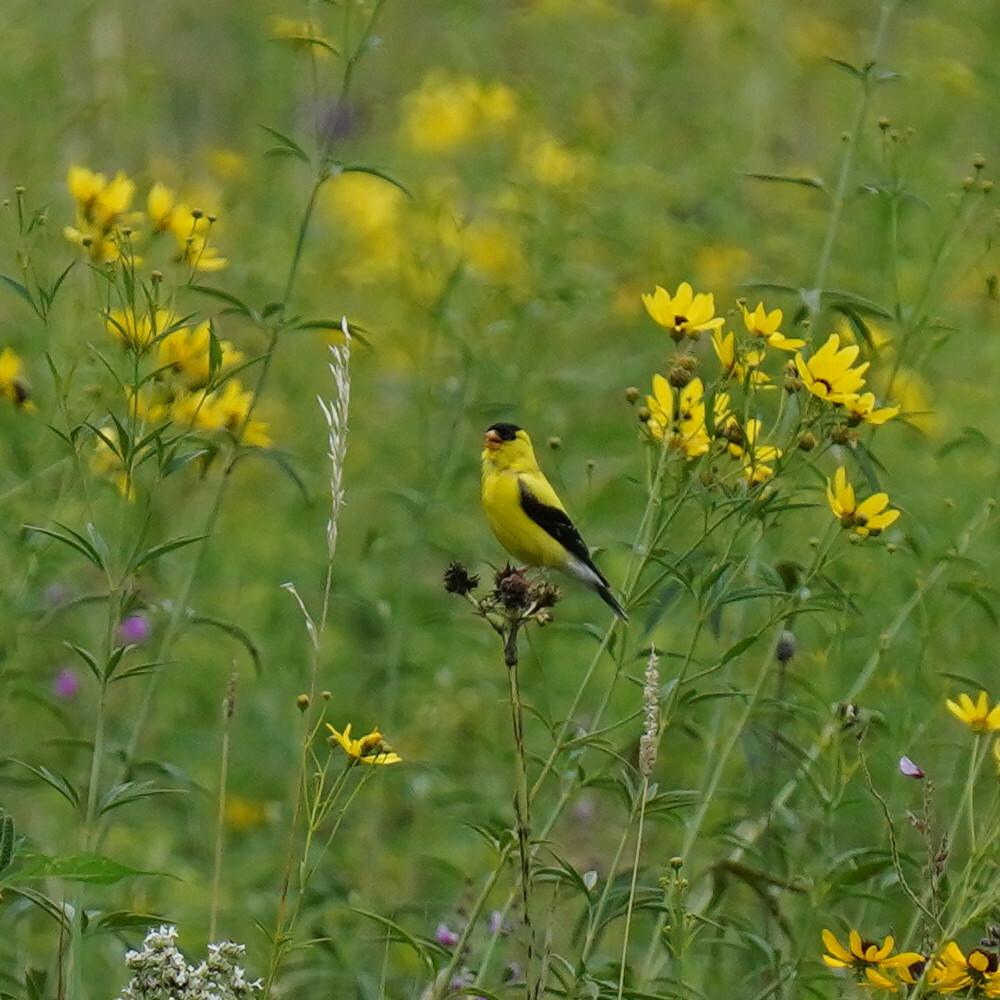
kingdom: Animalia
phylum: Chordata
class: Aves
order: Passeriformes
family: Fringillidae
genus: Spinus
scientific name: Spinus tristis
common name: American goldfinch
